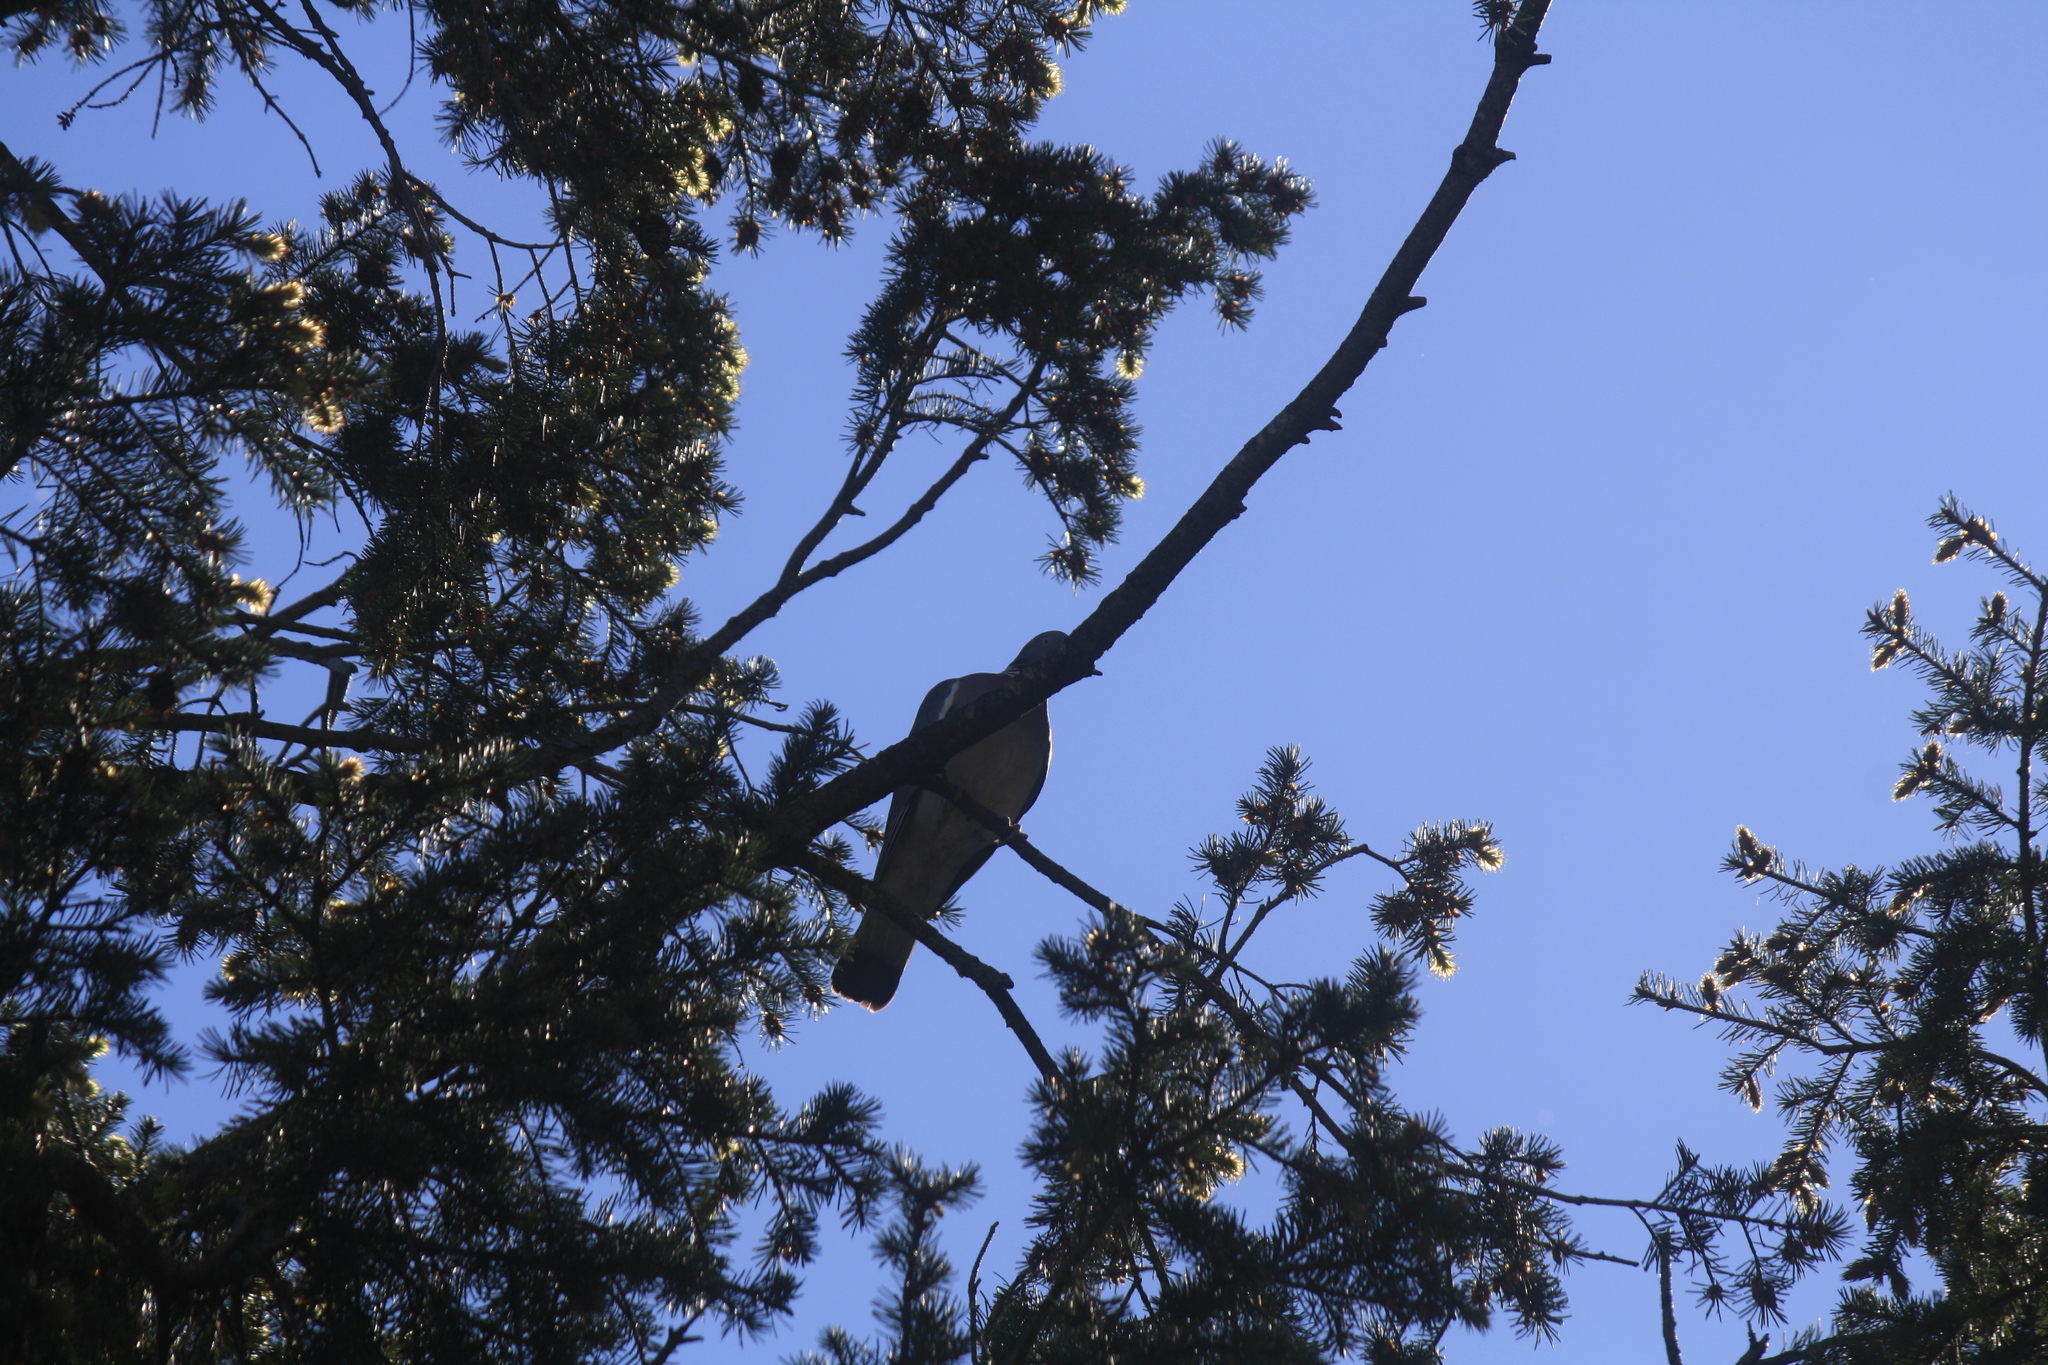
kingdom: Animalia
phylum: Chordata
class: Aves
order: Columbiformes
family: Columbidae
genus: Columba
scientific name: Columba palumbus
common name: Common wood pigeon
